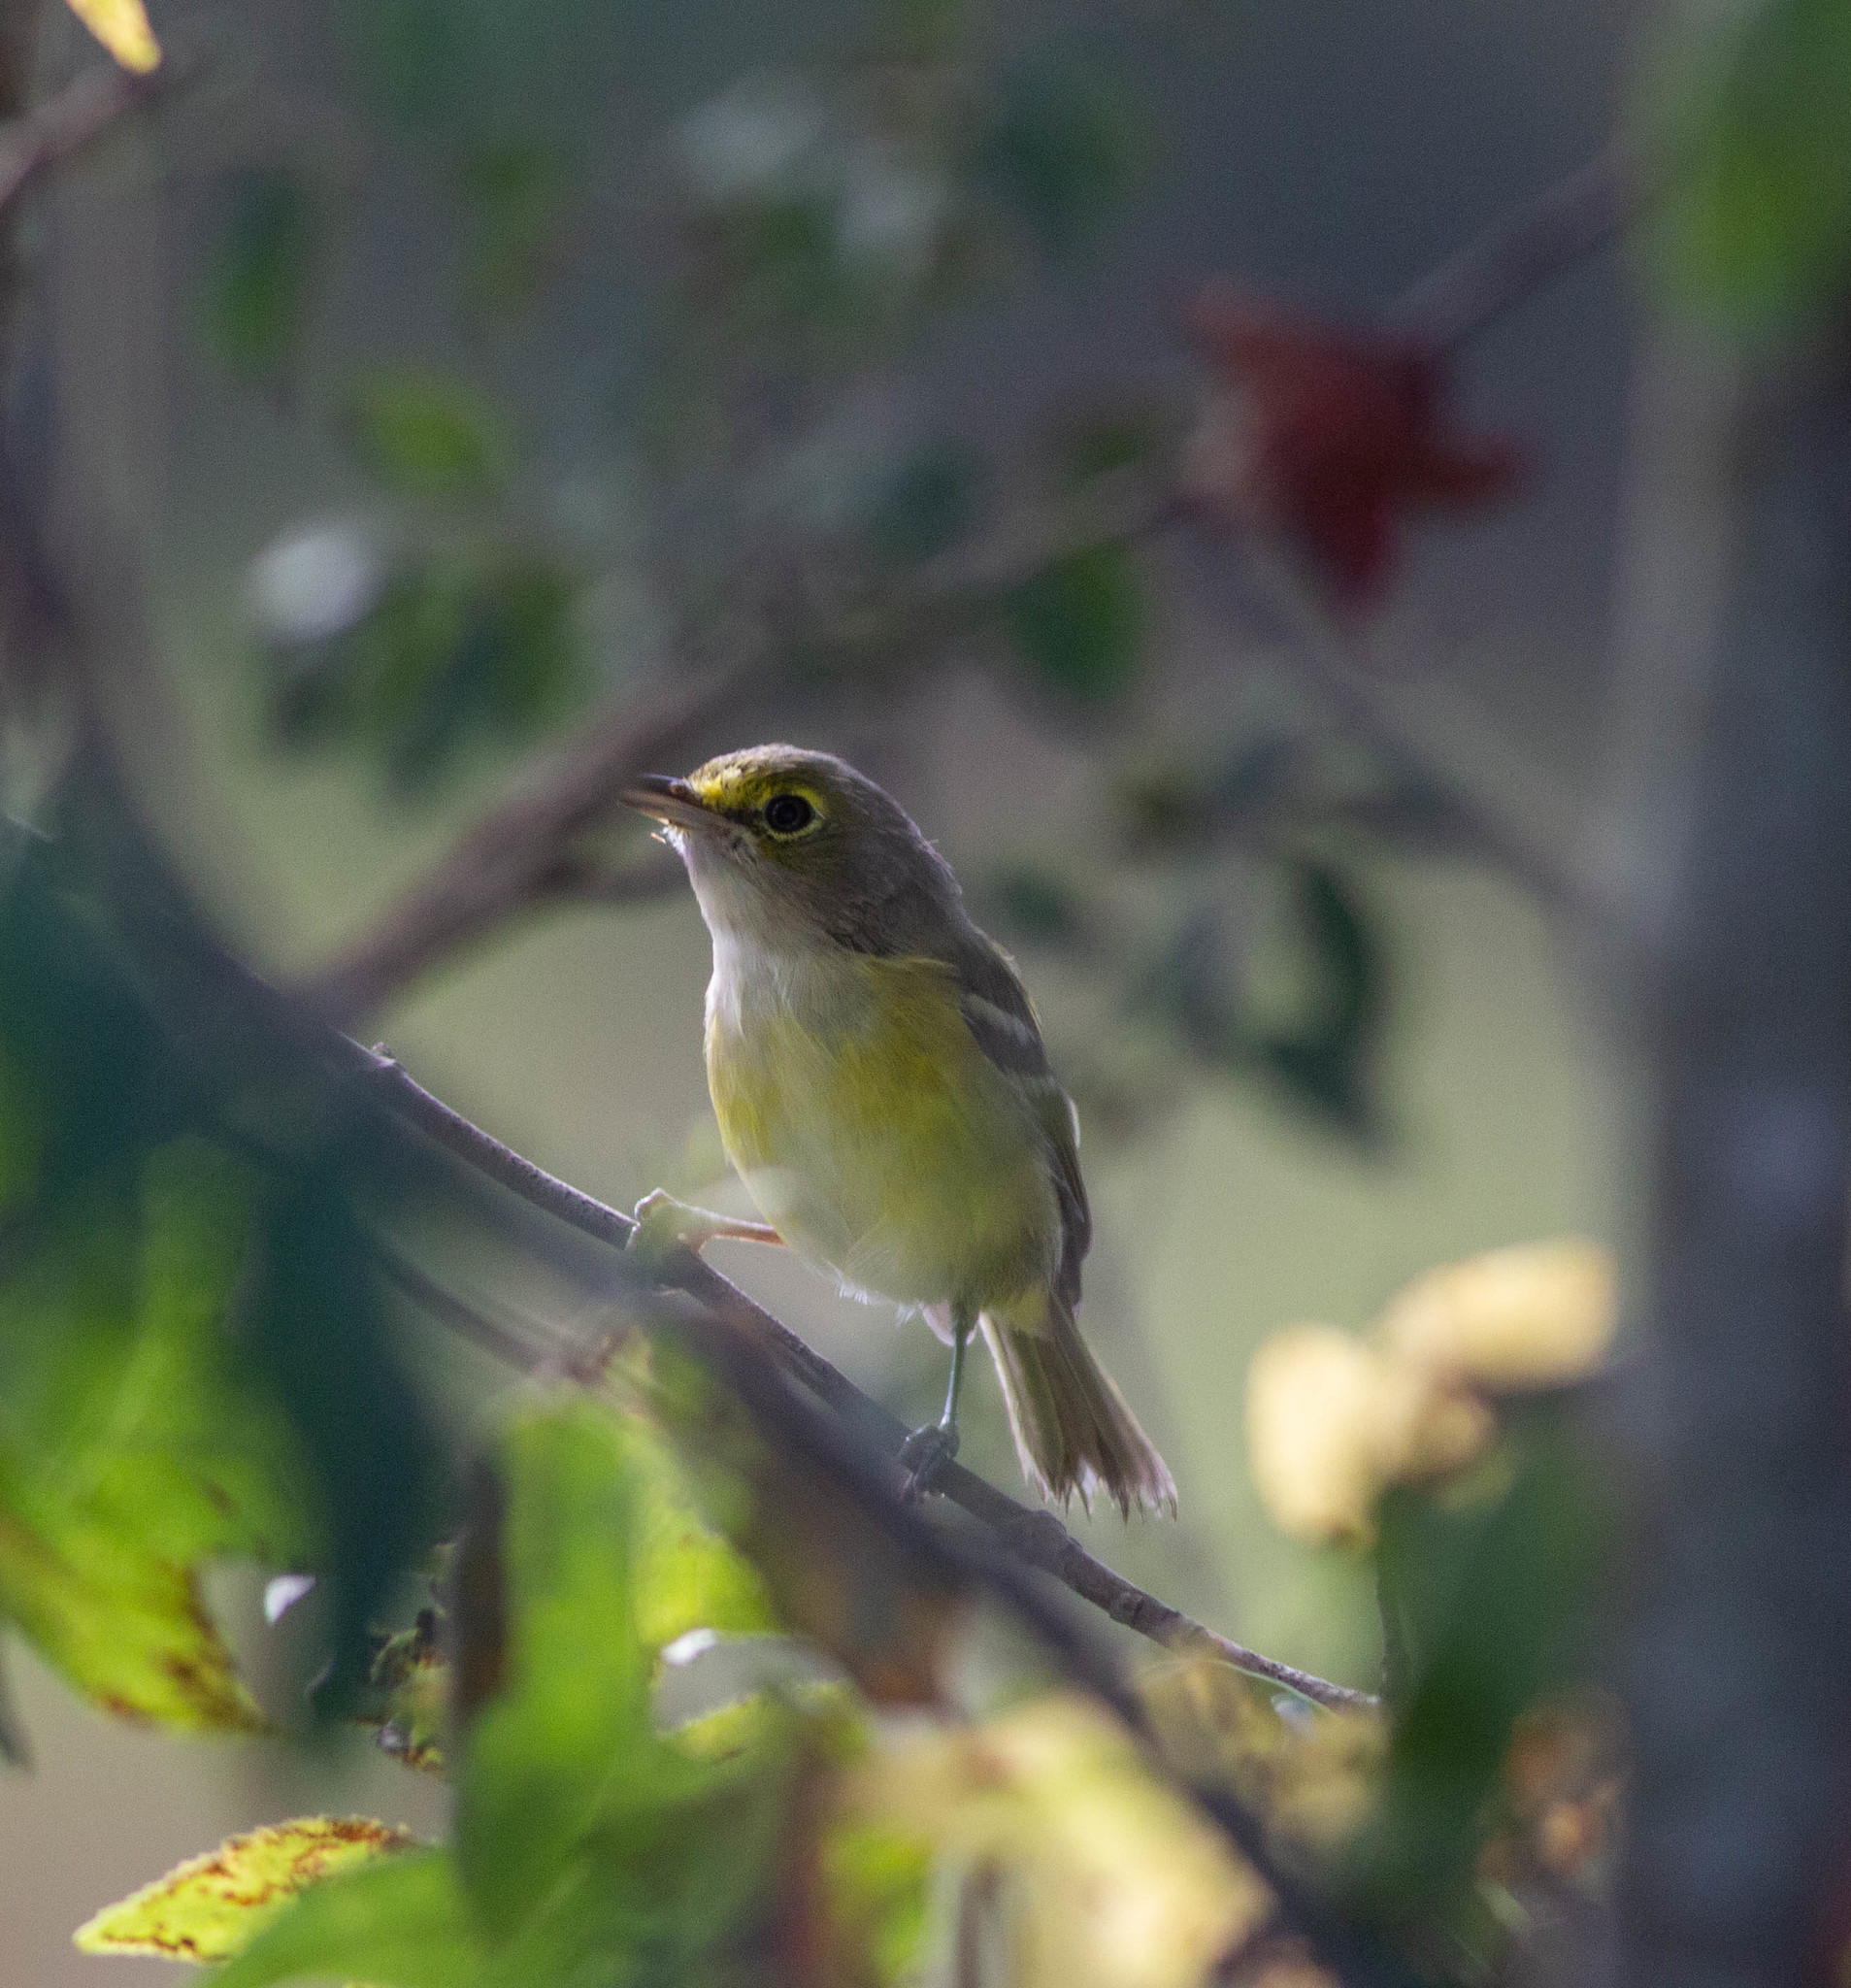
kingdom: Animalia
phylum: Chordata
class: Aves
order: Passeriformes
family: Vireonidae
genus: Vireo
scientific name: Vireo griseus
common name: White-eyed vireo
